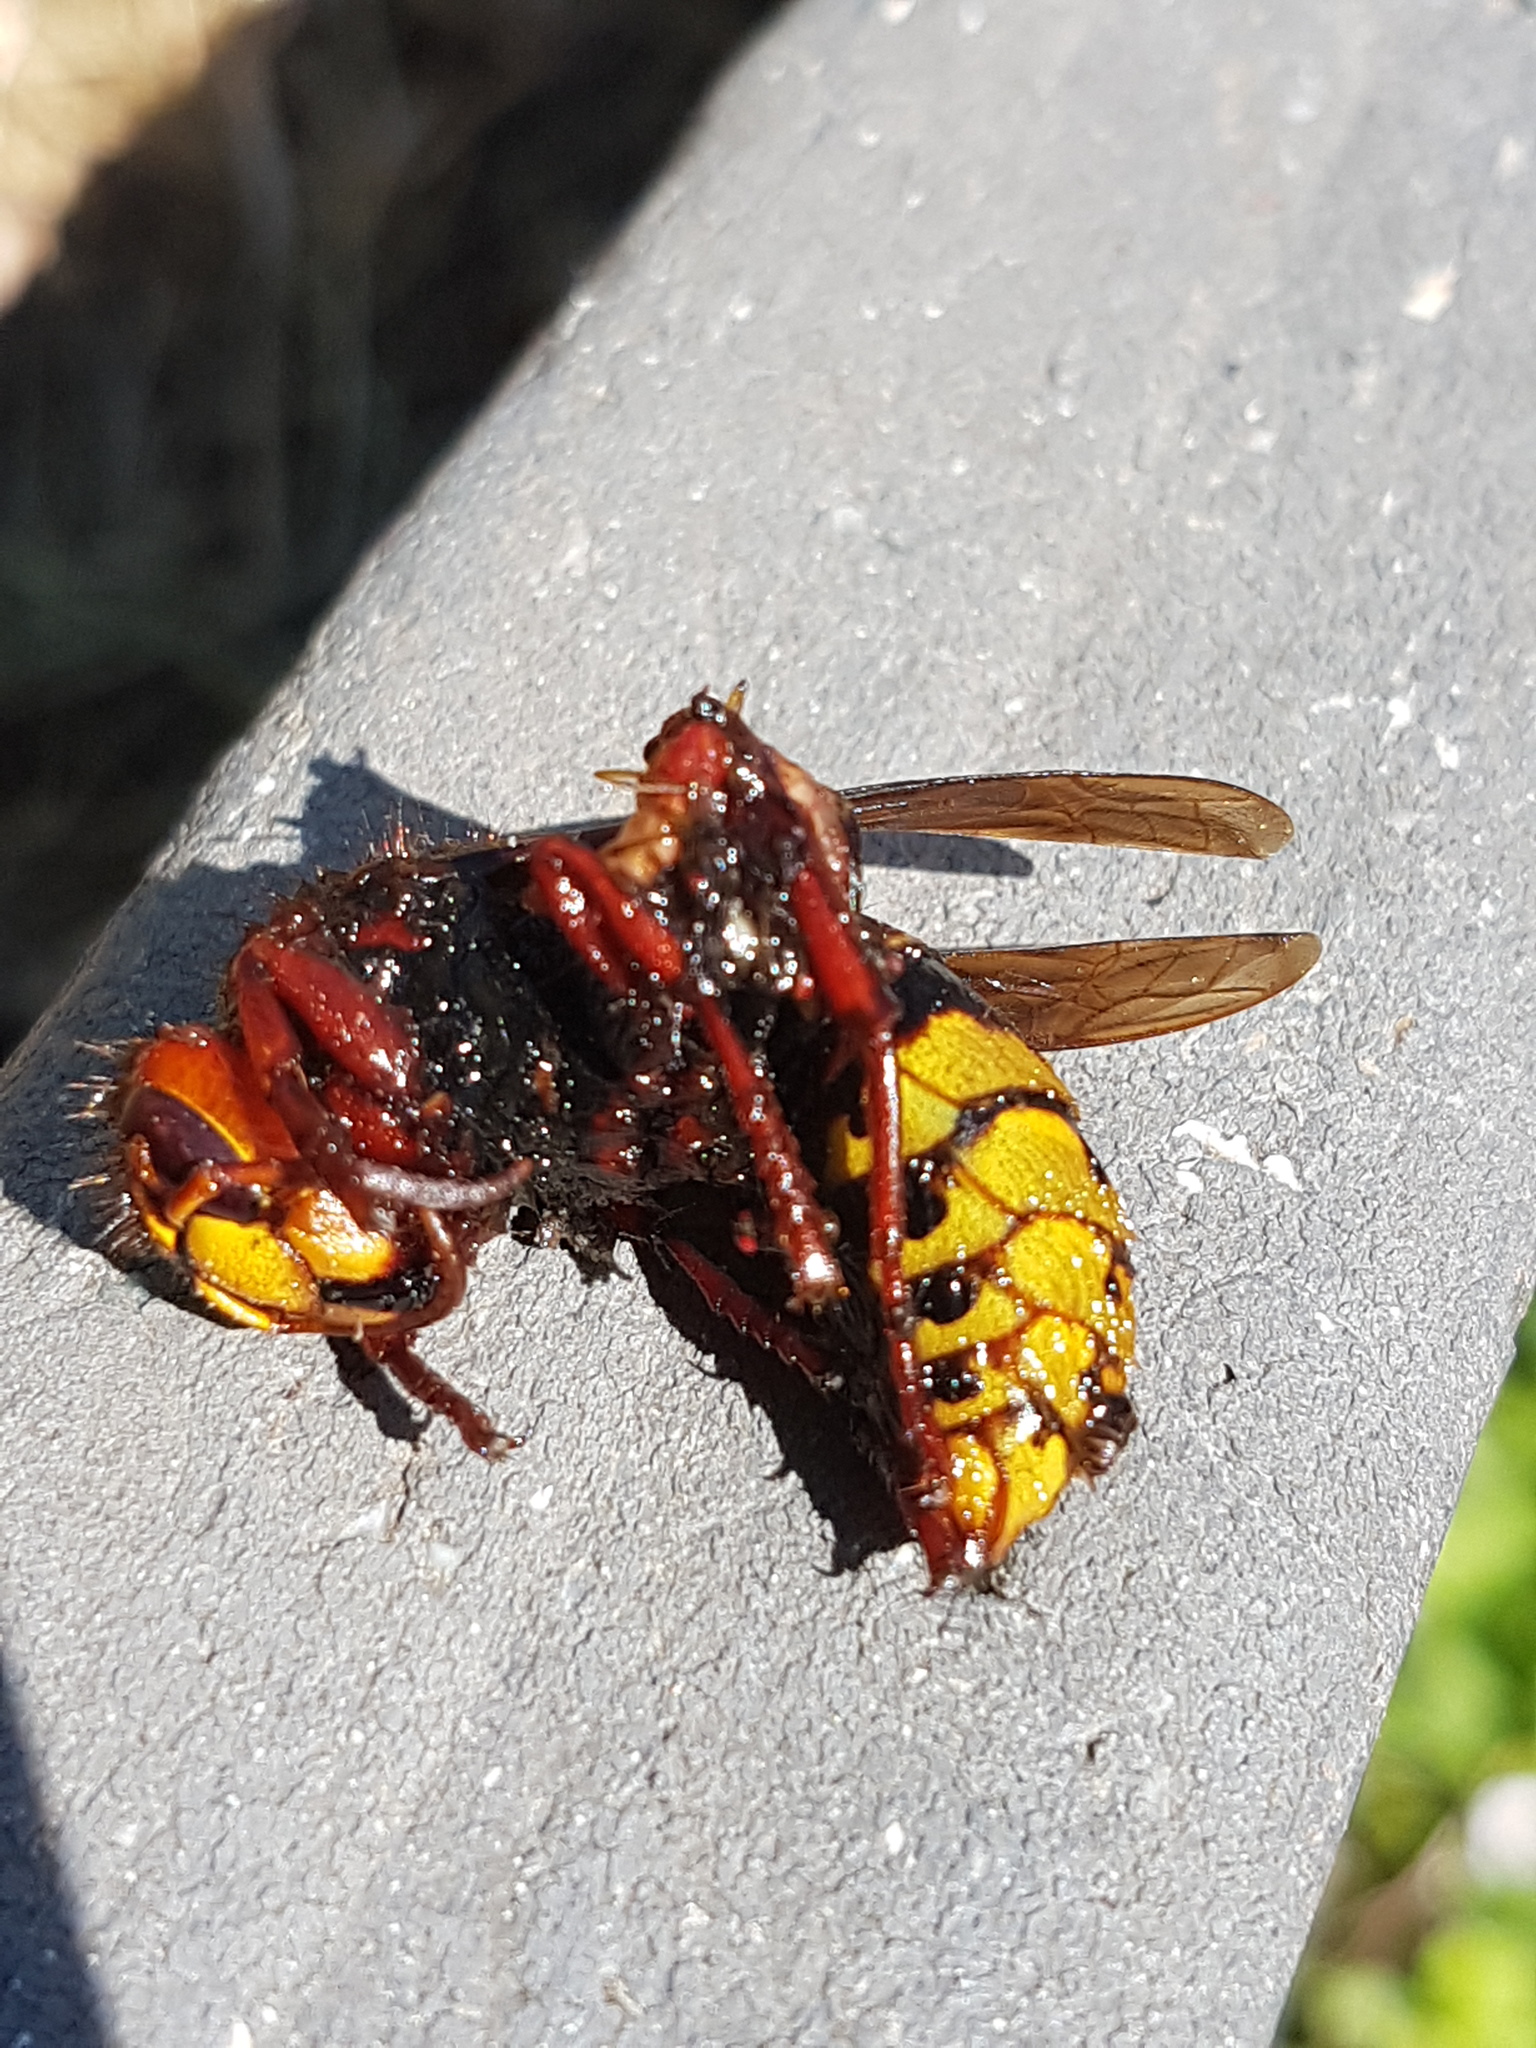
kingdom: Animalia
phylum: Arthropoda
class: Insecta
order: Hymenoptera
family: Vespidae
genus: Vespa
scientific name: Vespa crabro
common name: Hornet
